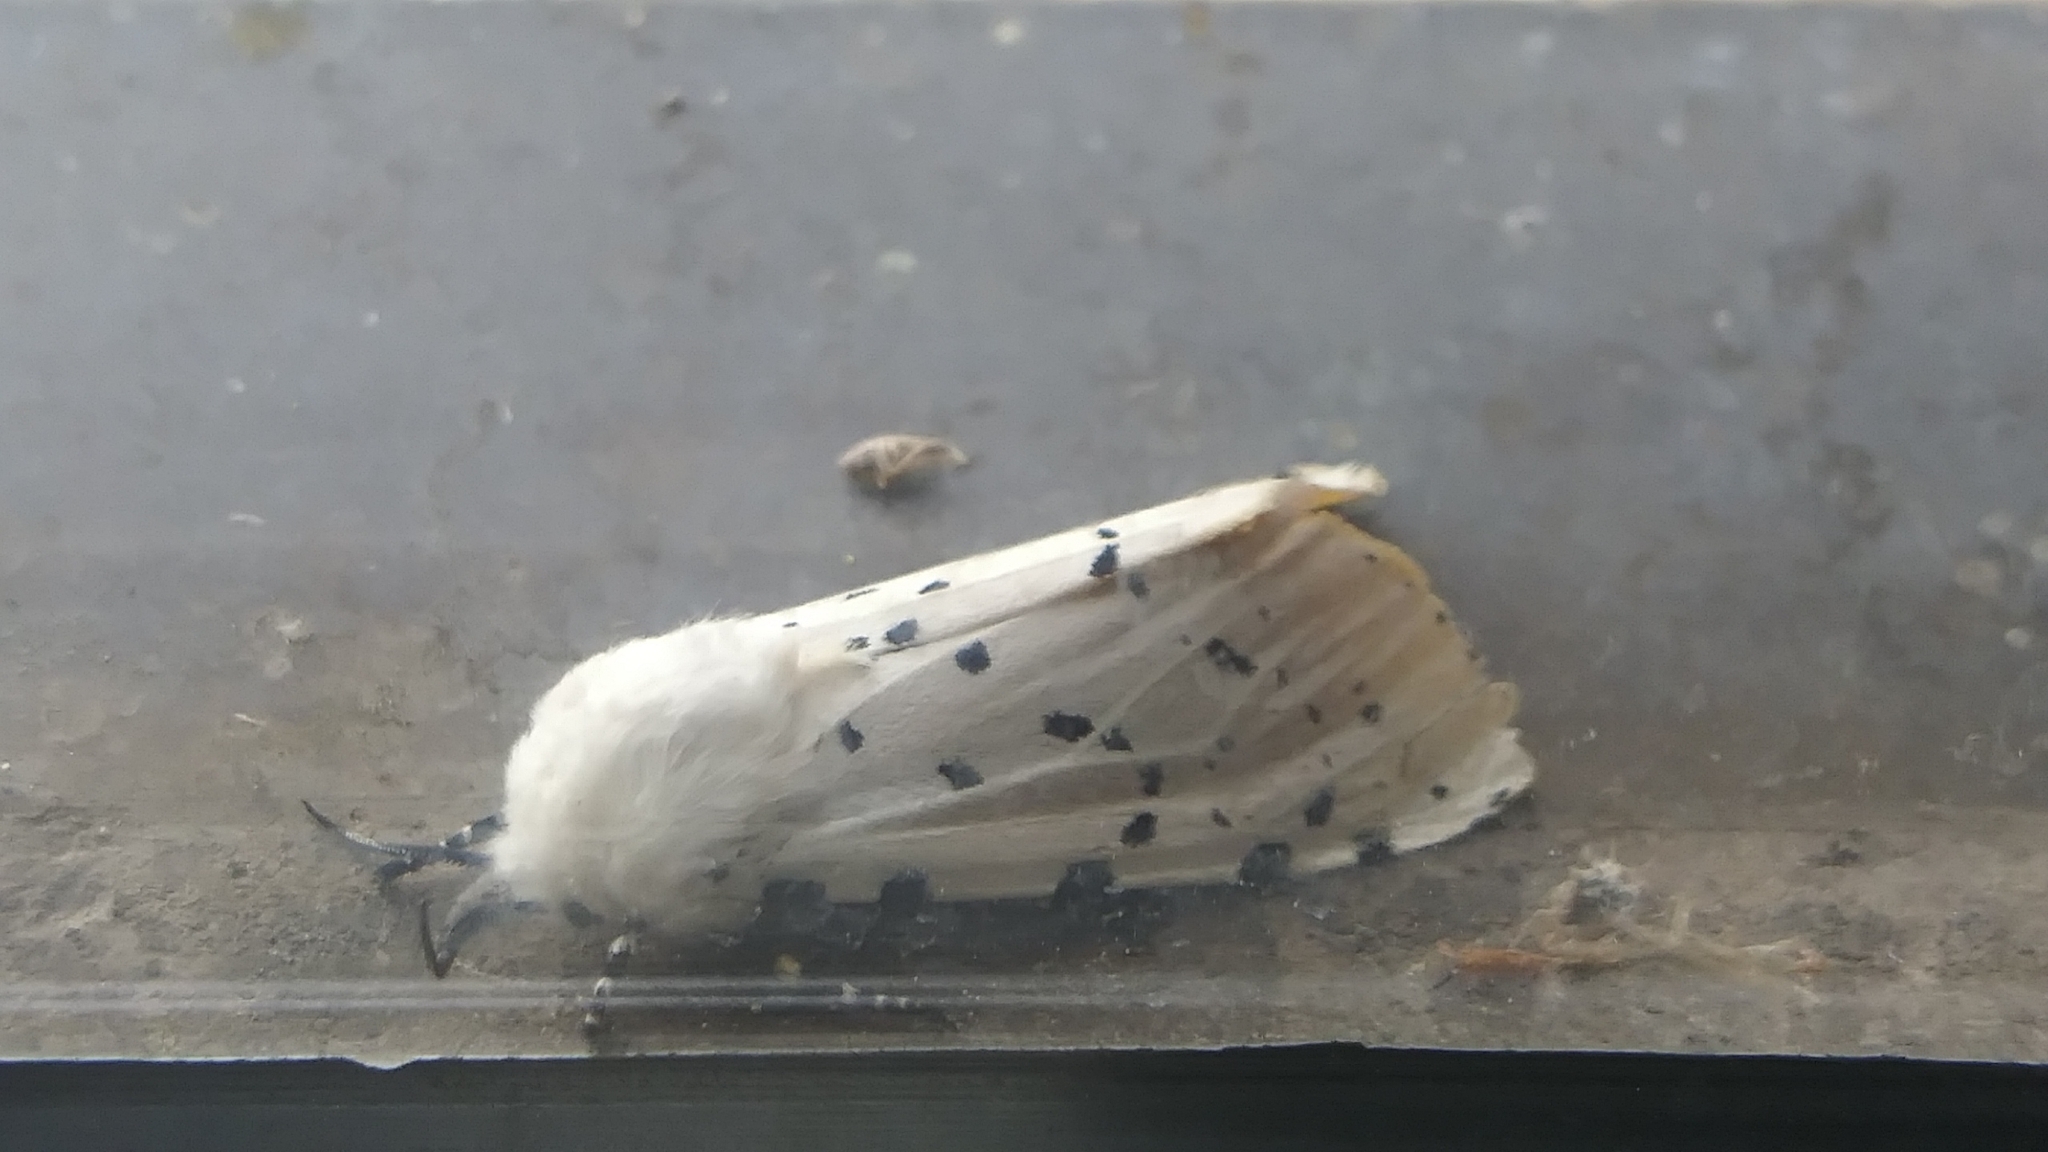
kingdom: Animalia
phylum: Arthropoda
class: Insecta
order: Lepidoptera
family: Erebidae
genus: Estigmene
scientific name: Estigmene acrea
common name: Salt marsh moth
